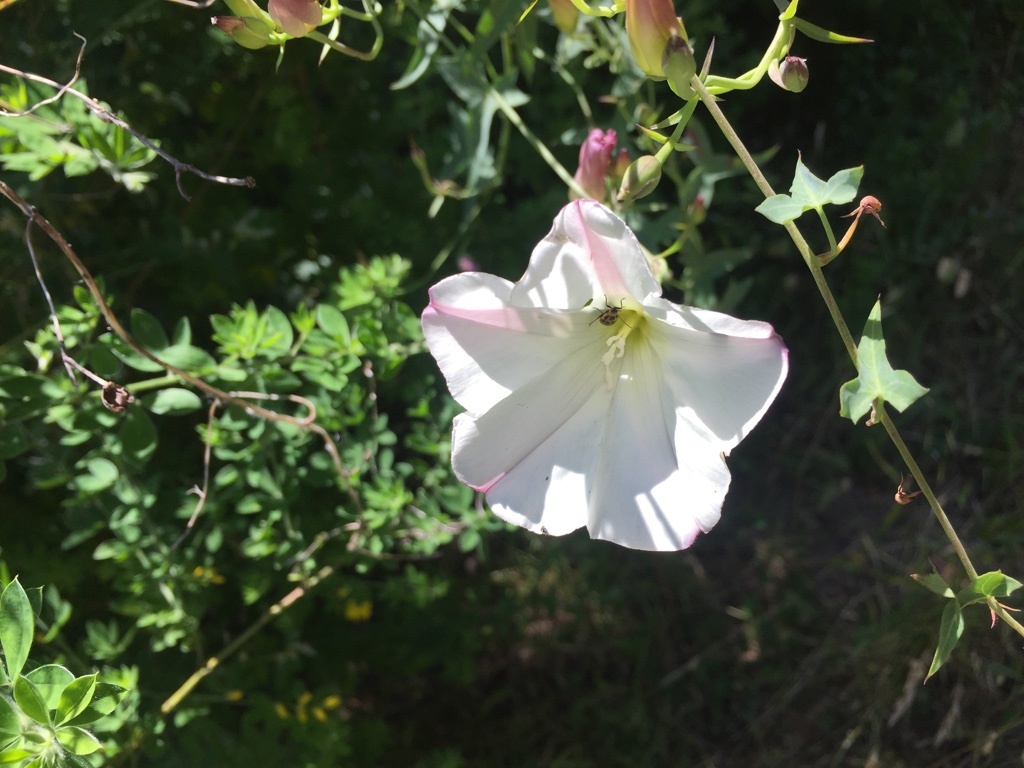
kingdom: Plantae
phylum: Tracheophyta
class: Magnoliopsida
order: Solanales
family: Convolvulaceae
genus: Calystegia
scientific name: Calystegia purpurata
